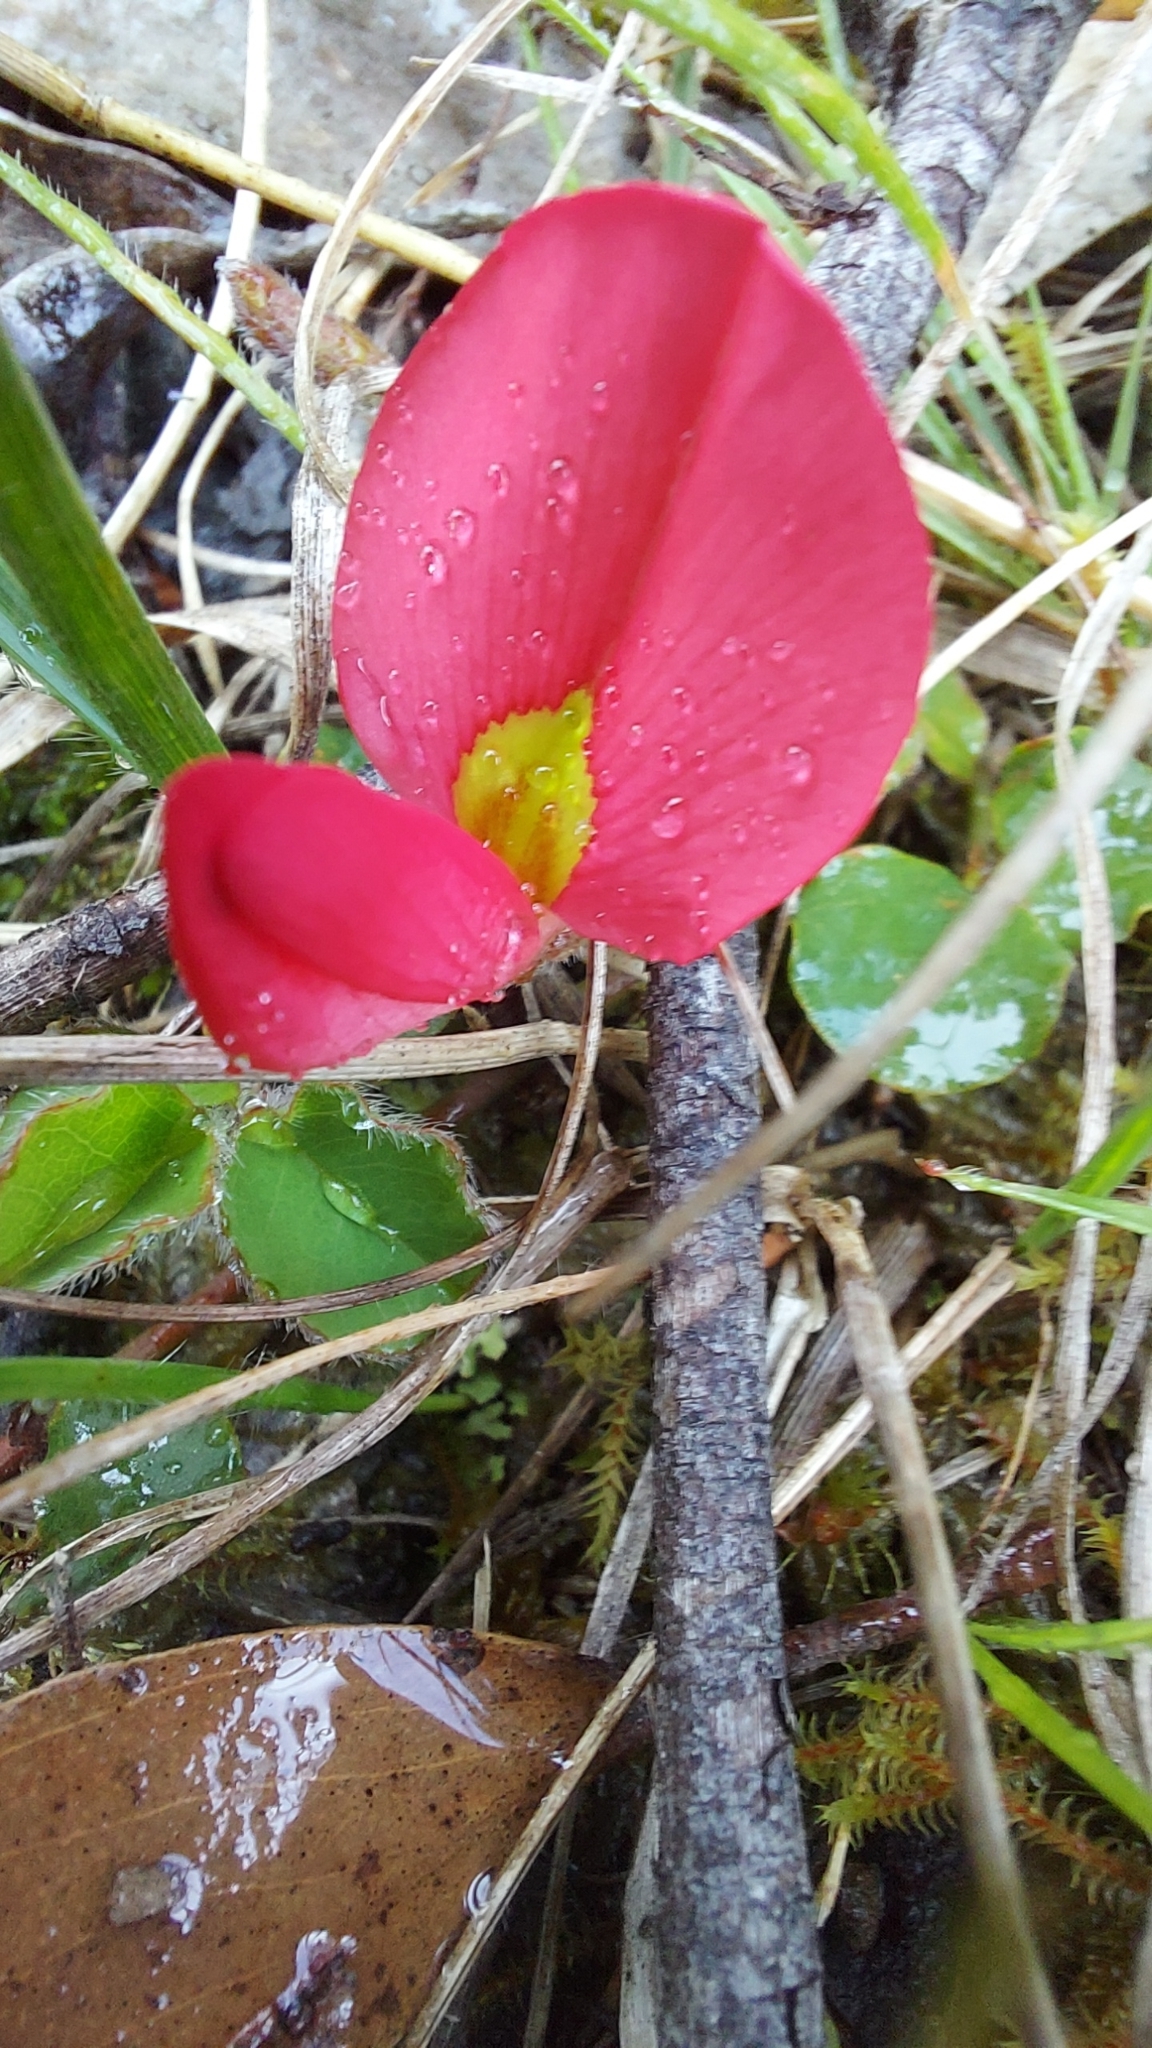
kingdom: Plantae
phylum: Tracheophyta
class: Magnoliopsida
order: Fabales
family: Fabaceae
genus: Kennedia
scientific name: Kennedia prostrata
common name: Running-postman
